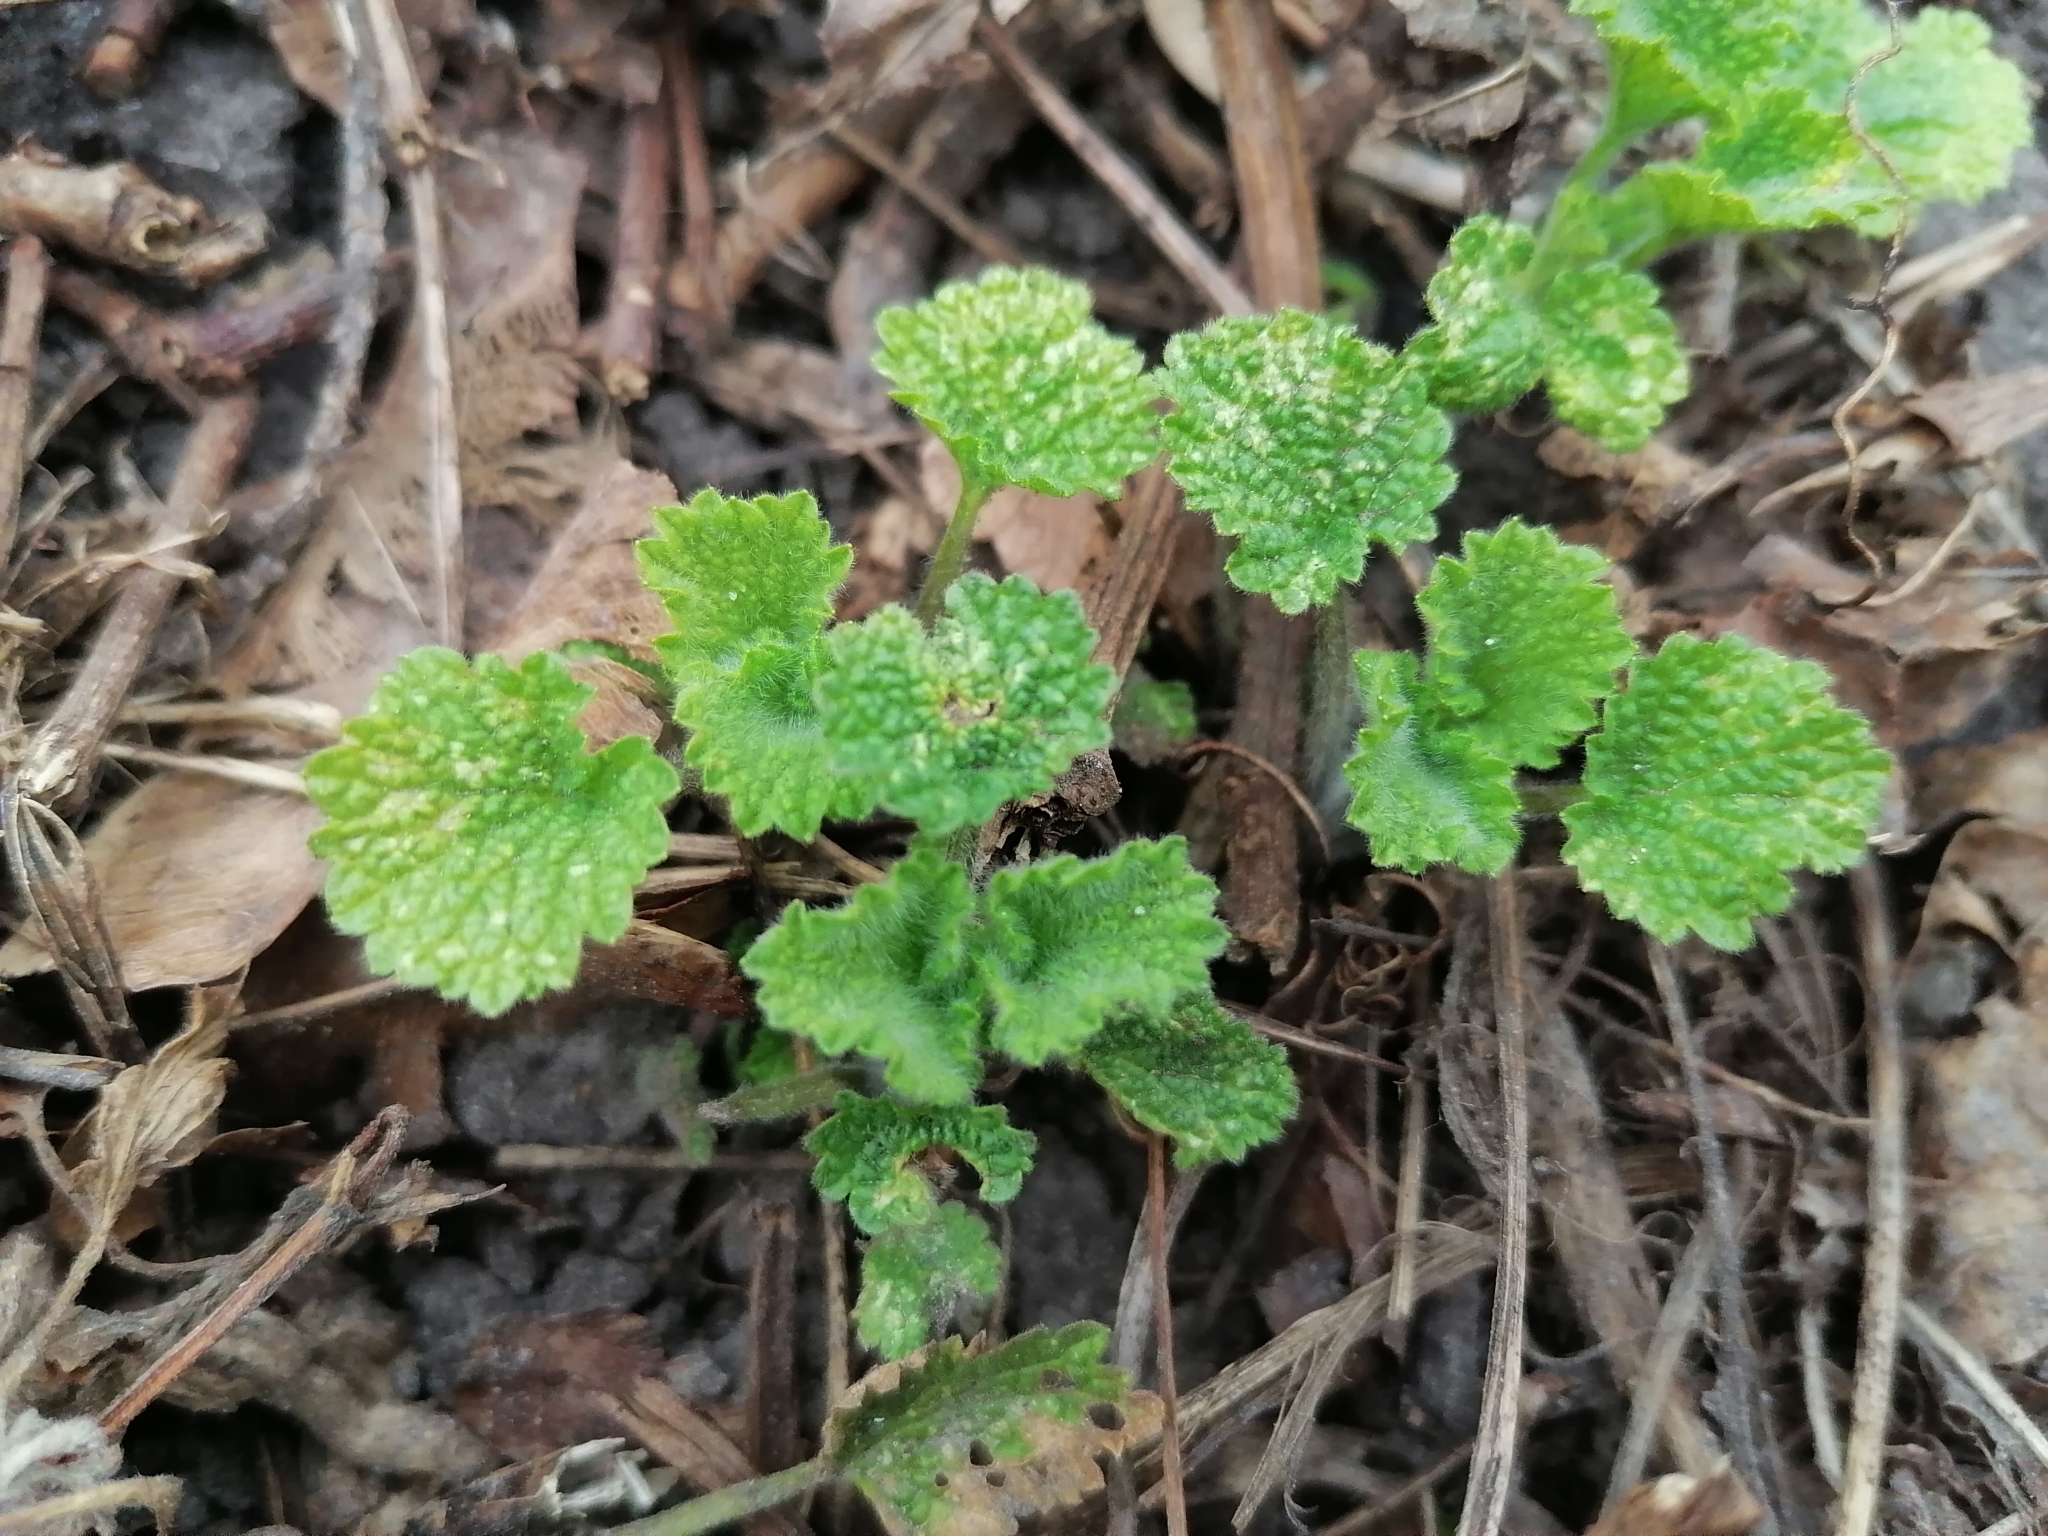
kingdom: Plantae
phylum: Tracheophyta
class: Magnoliopsida
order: Lamiales
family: Lamiaceae
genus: Ballota
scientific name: Ballota nigra
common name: Black horehound
